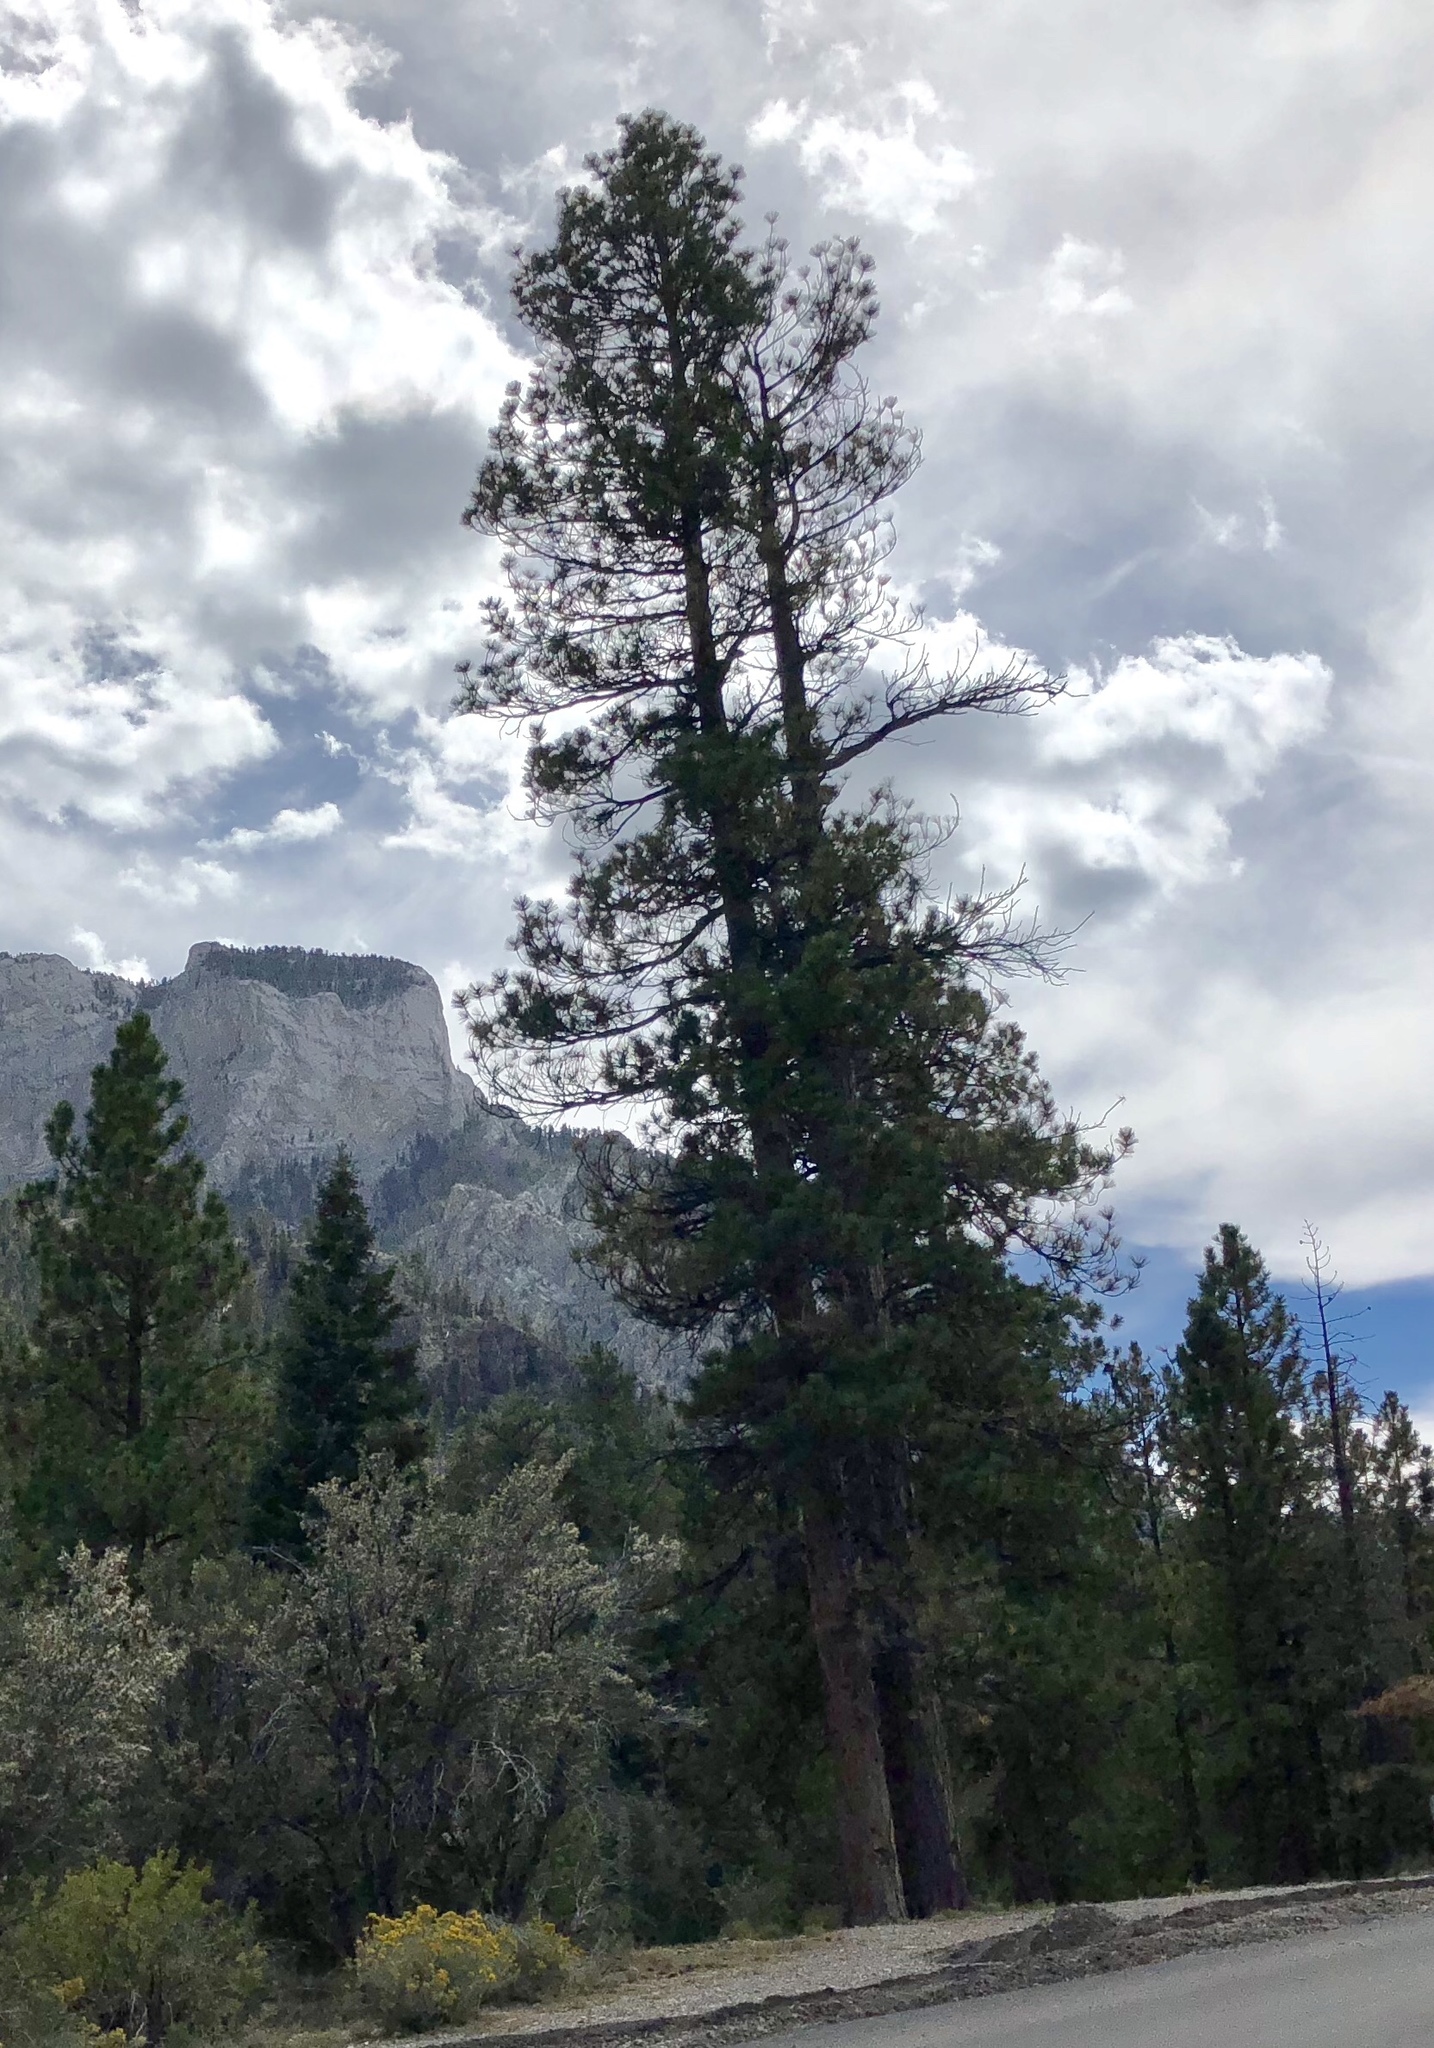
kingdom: Plantae
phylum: Tracheophyta
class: Pinopsida
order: Pinales
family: Pinaceae
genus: Pinus
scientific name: Pinus ponderosa
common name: Western yellow-pine
